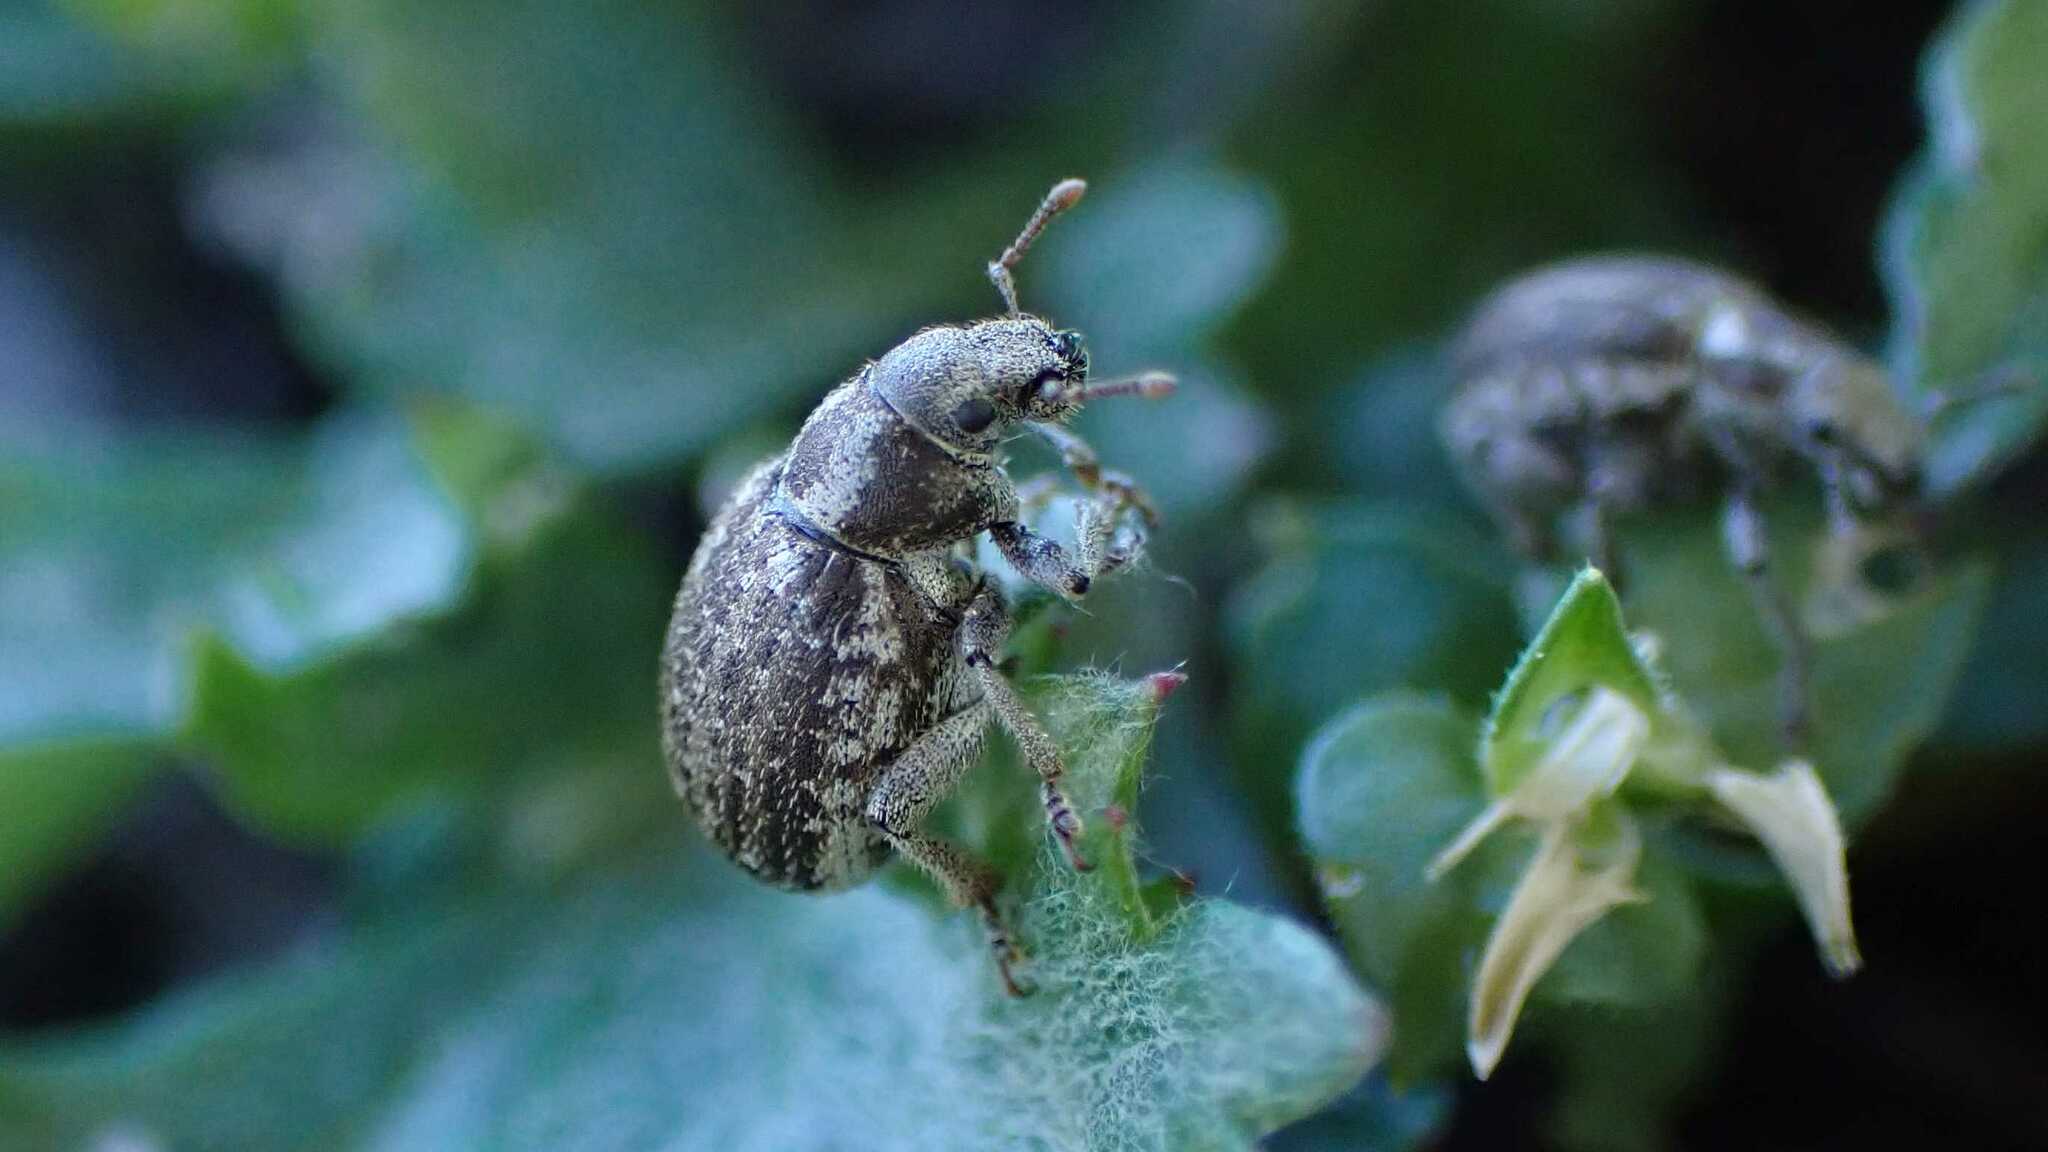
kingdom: Animalia
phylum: Arthropoda
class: Insecta
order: Coleoptera
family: Curculionidae
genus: Philopedon
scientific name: Philopedon plagiatum
